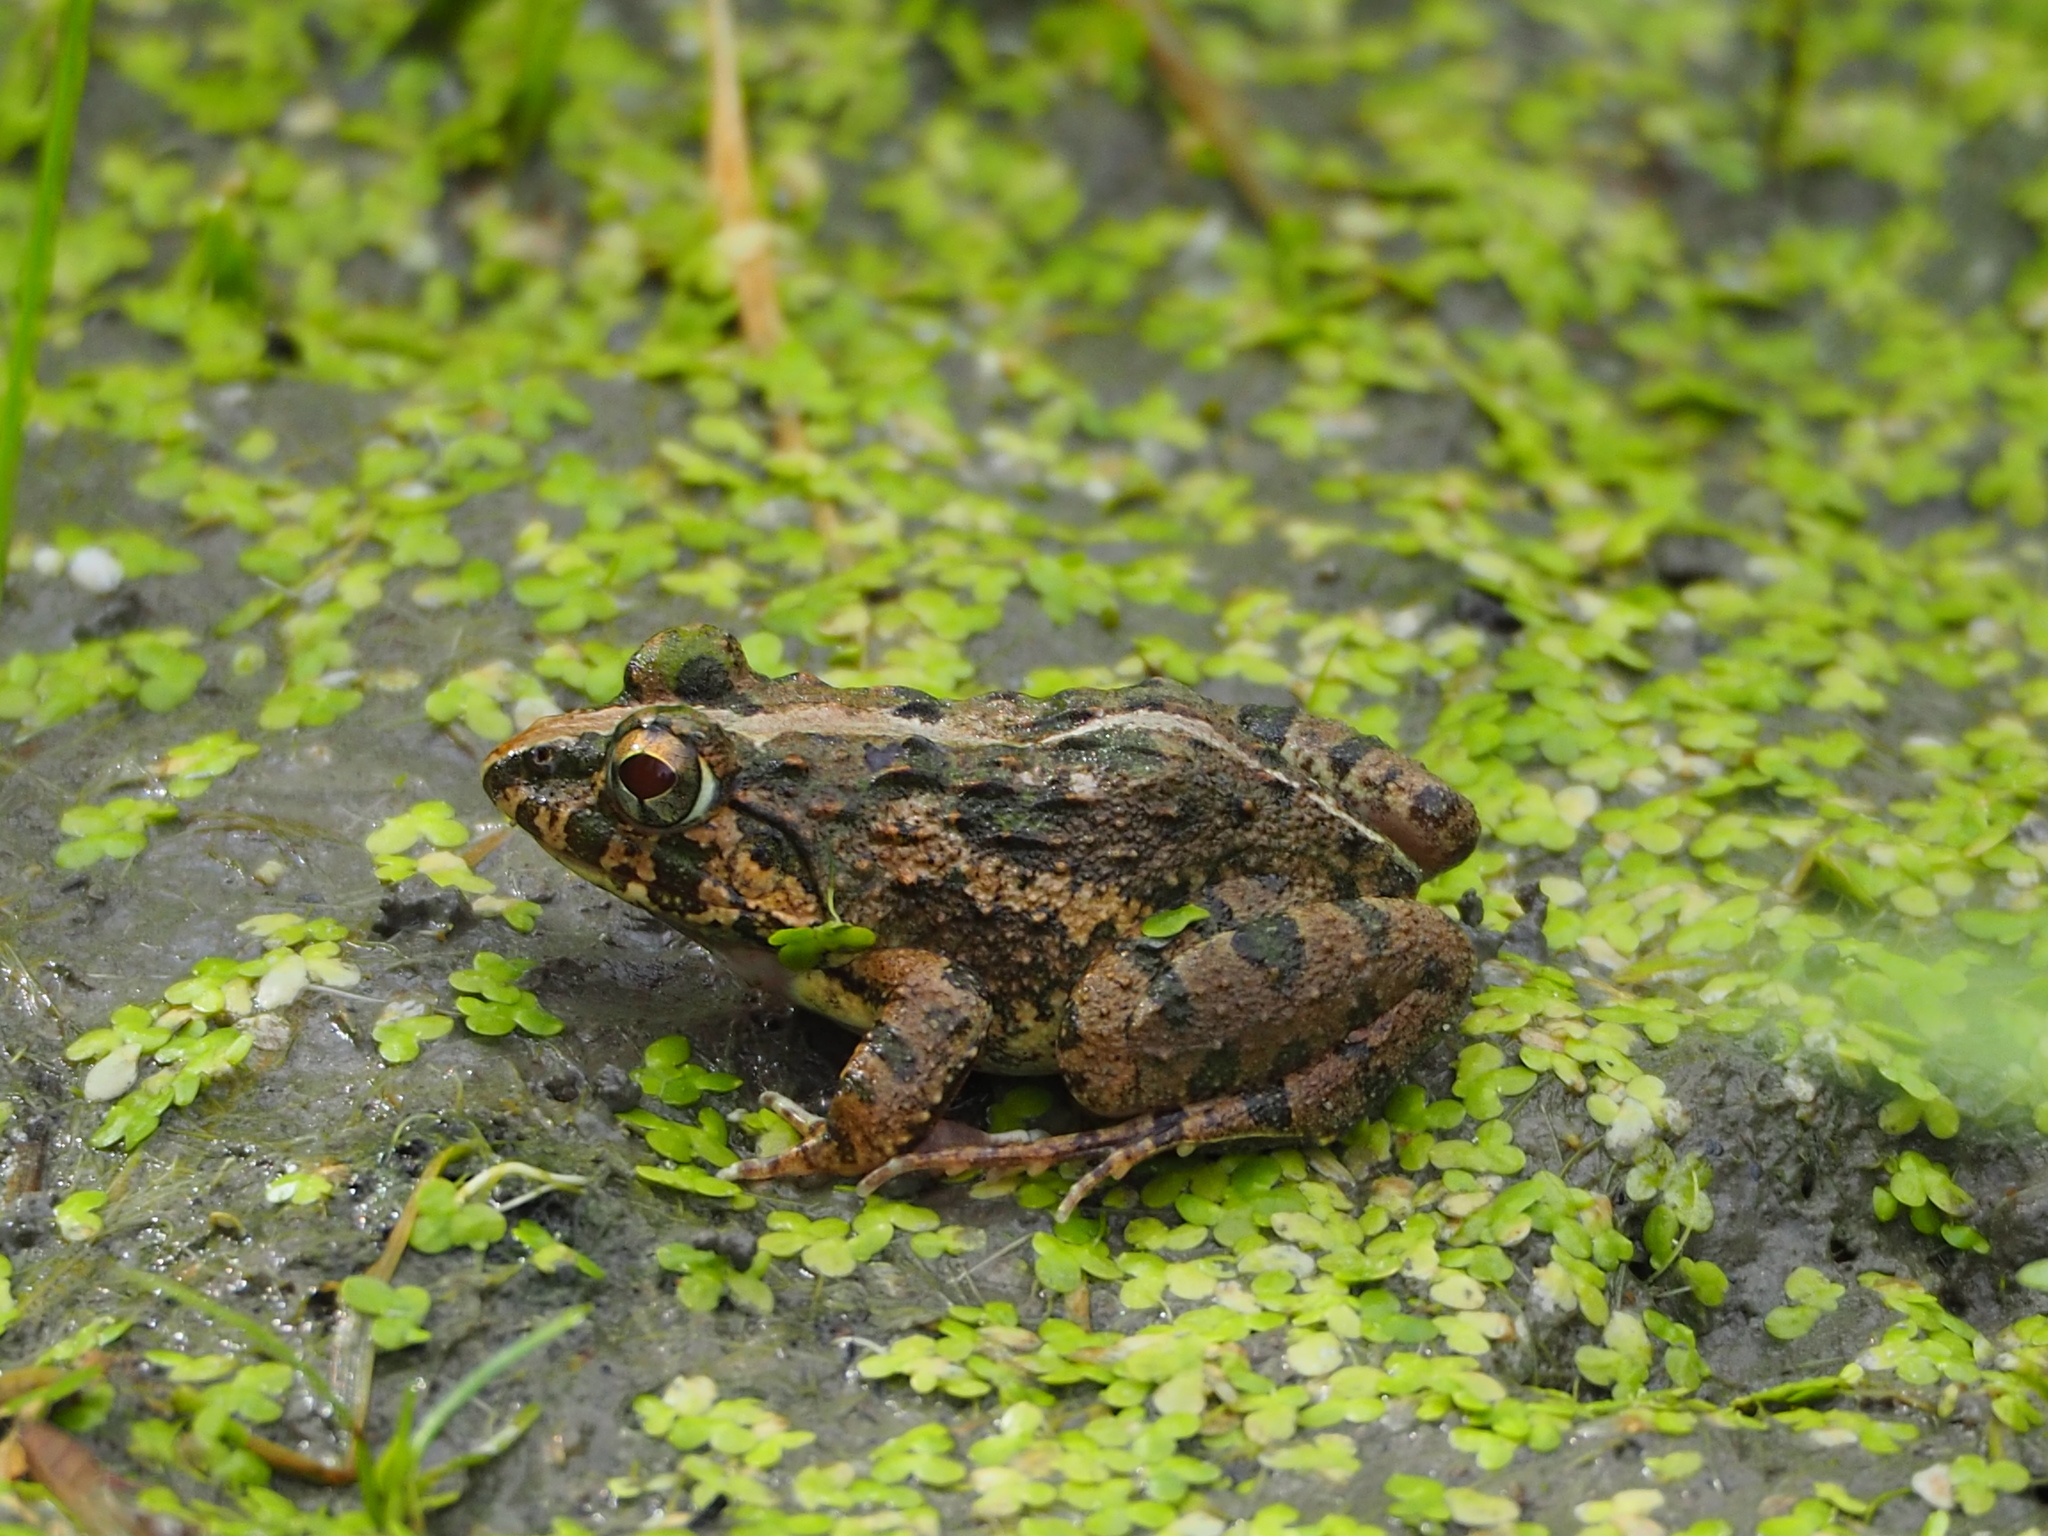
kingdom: Animalia
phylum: Chordata
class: Amphibia
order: Anura
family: Dicroglossidae
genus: Fejervarya
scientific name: Fejervarya limnocharis
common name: Asian grass frog/common pond frog/field frog/grass frog/indian rice frog
